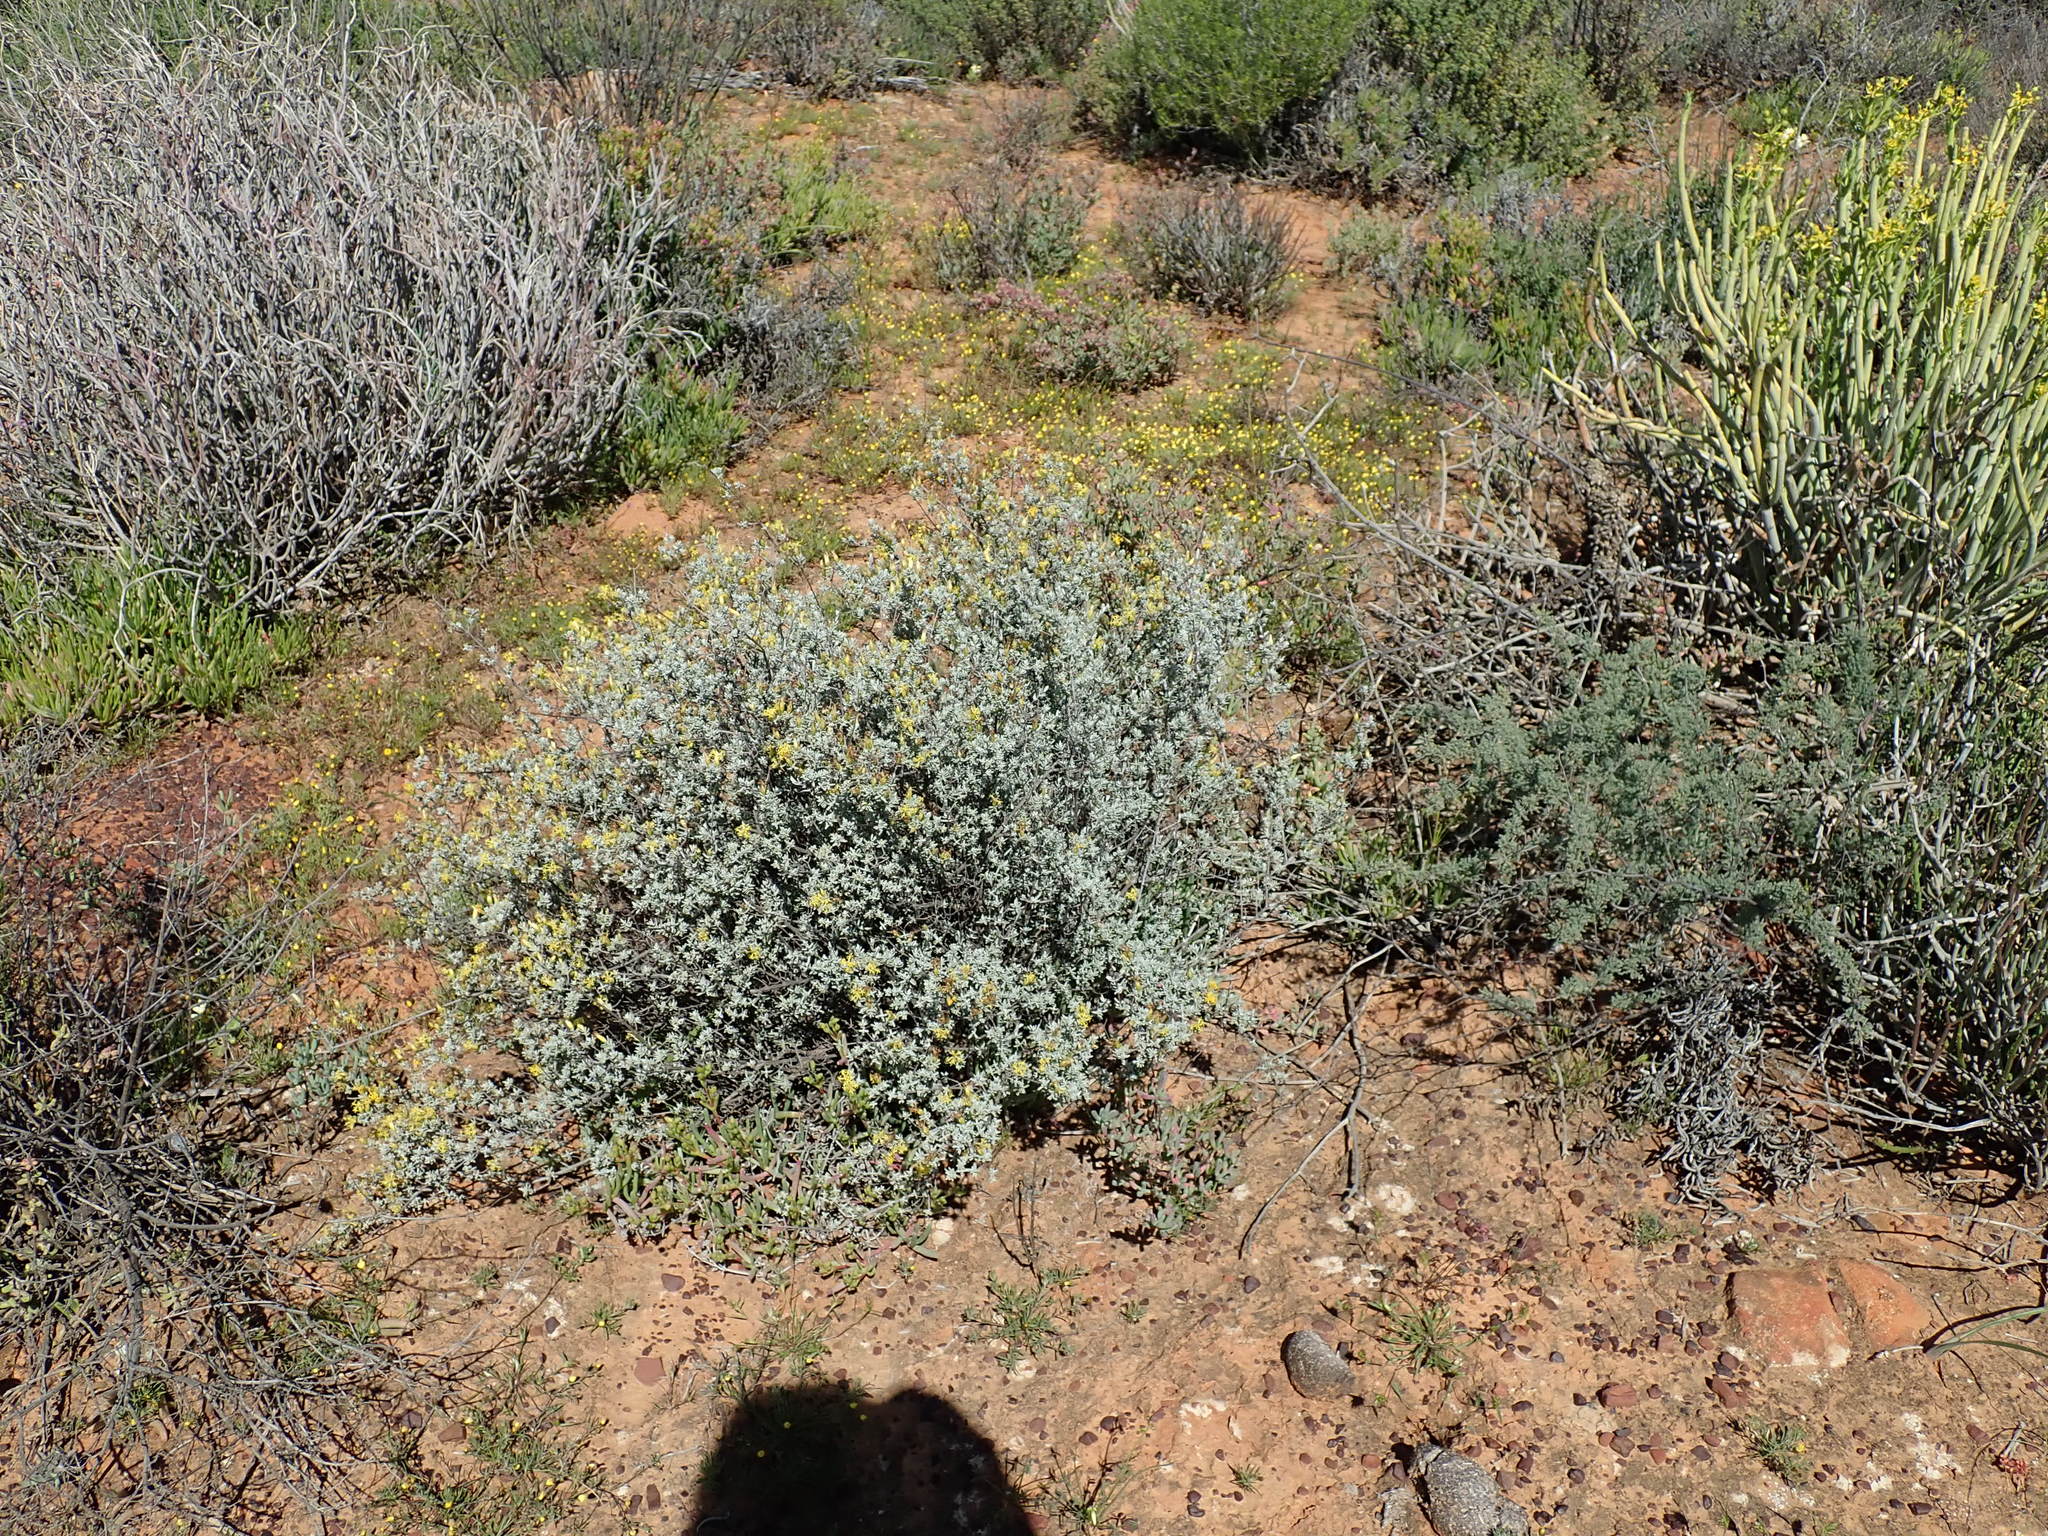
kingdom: Plantae
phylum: Tracheophyta
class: Magnoliopsida
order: Asterales
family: Asteraceae
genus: Pteronia
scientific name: Pteronia incana
